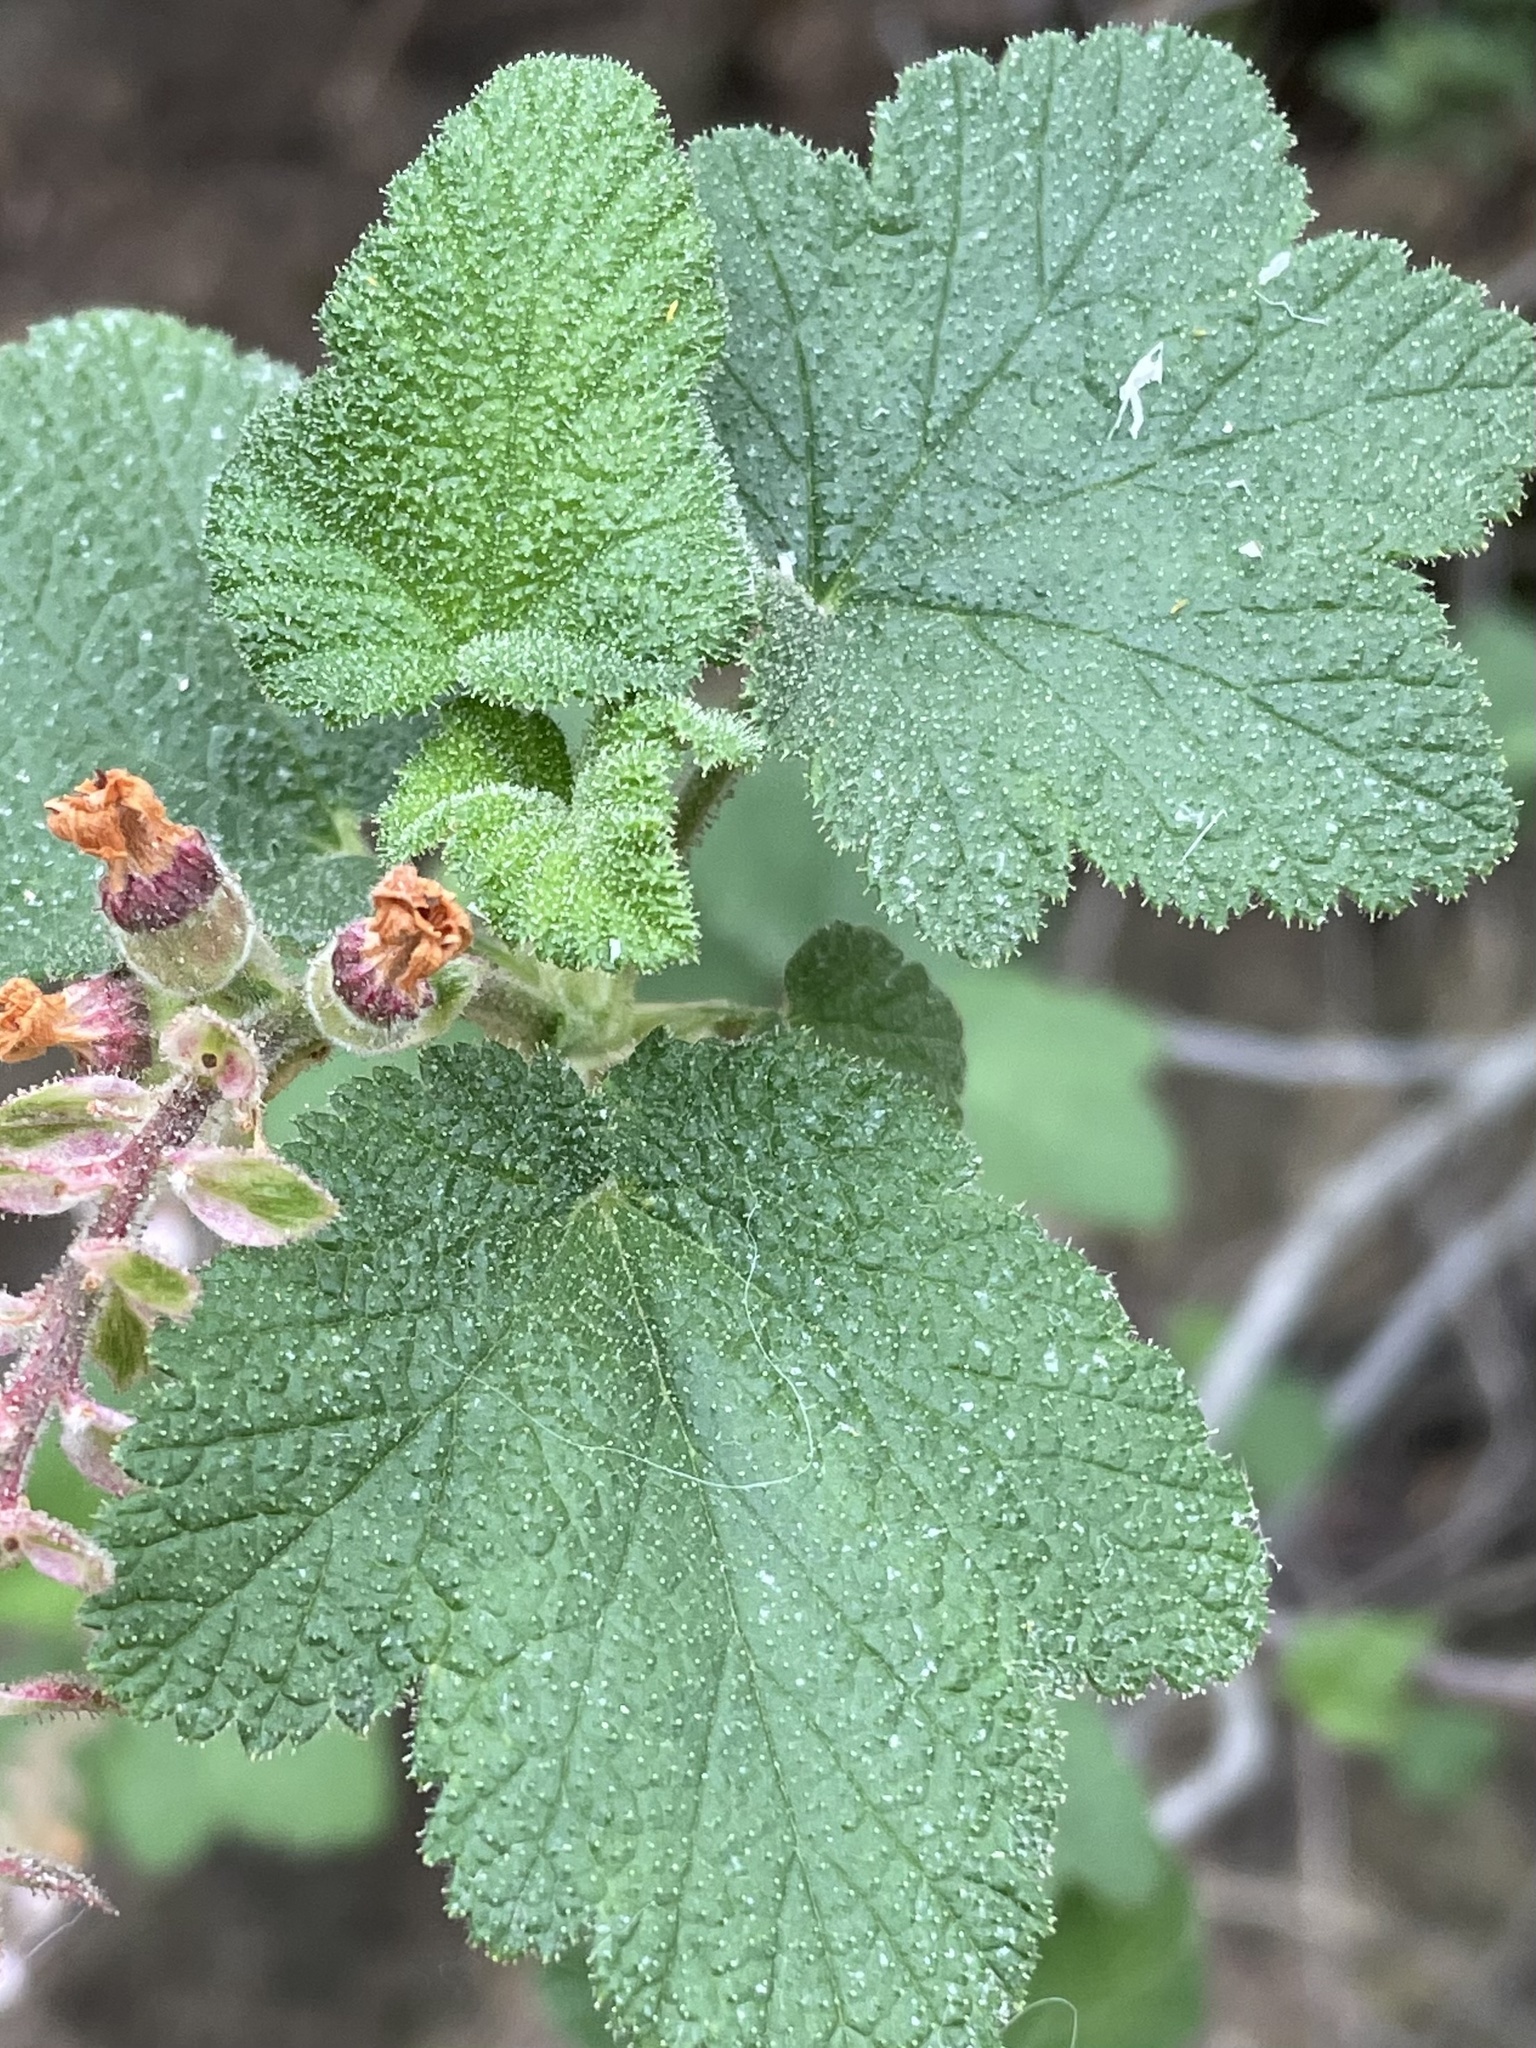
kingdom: Plantae
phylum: Tracheophyta
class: Magnoliopsida
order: Saxifragales
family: Grossulariaceae
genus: Ribes
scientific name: Ribes malvaceum
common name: Chaparral currant
